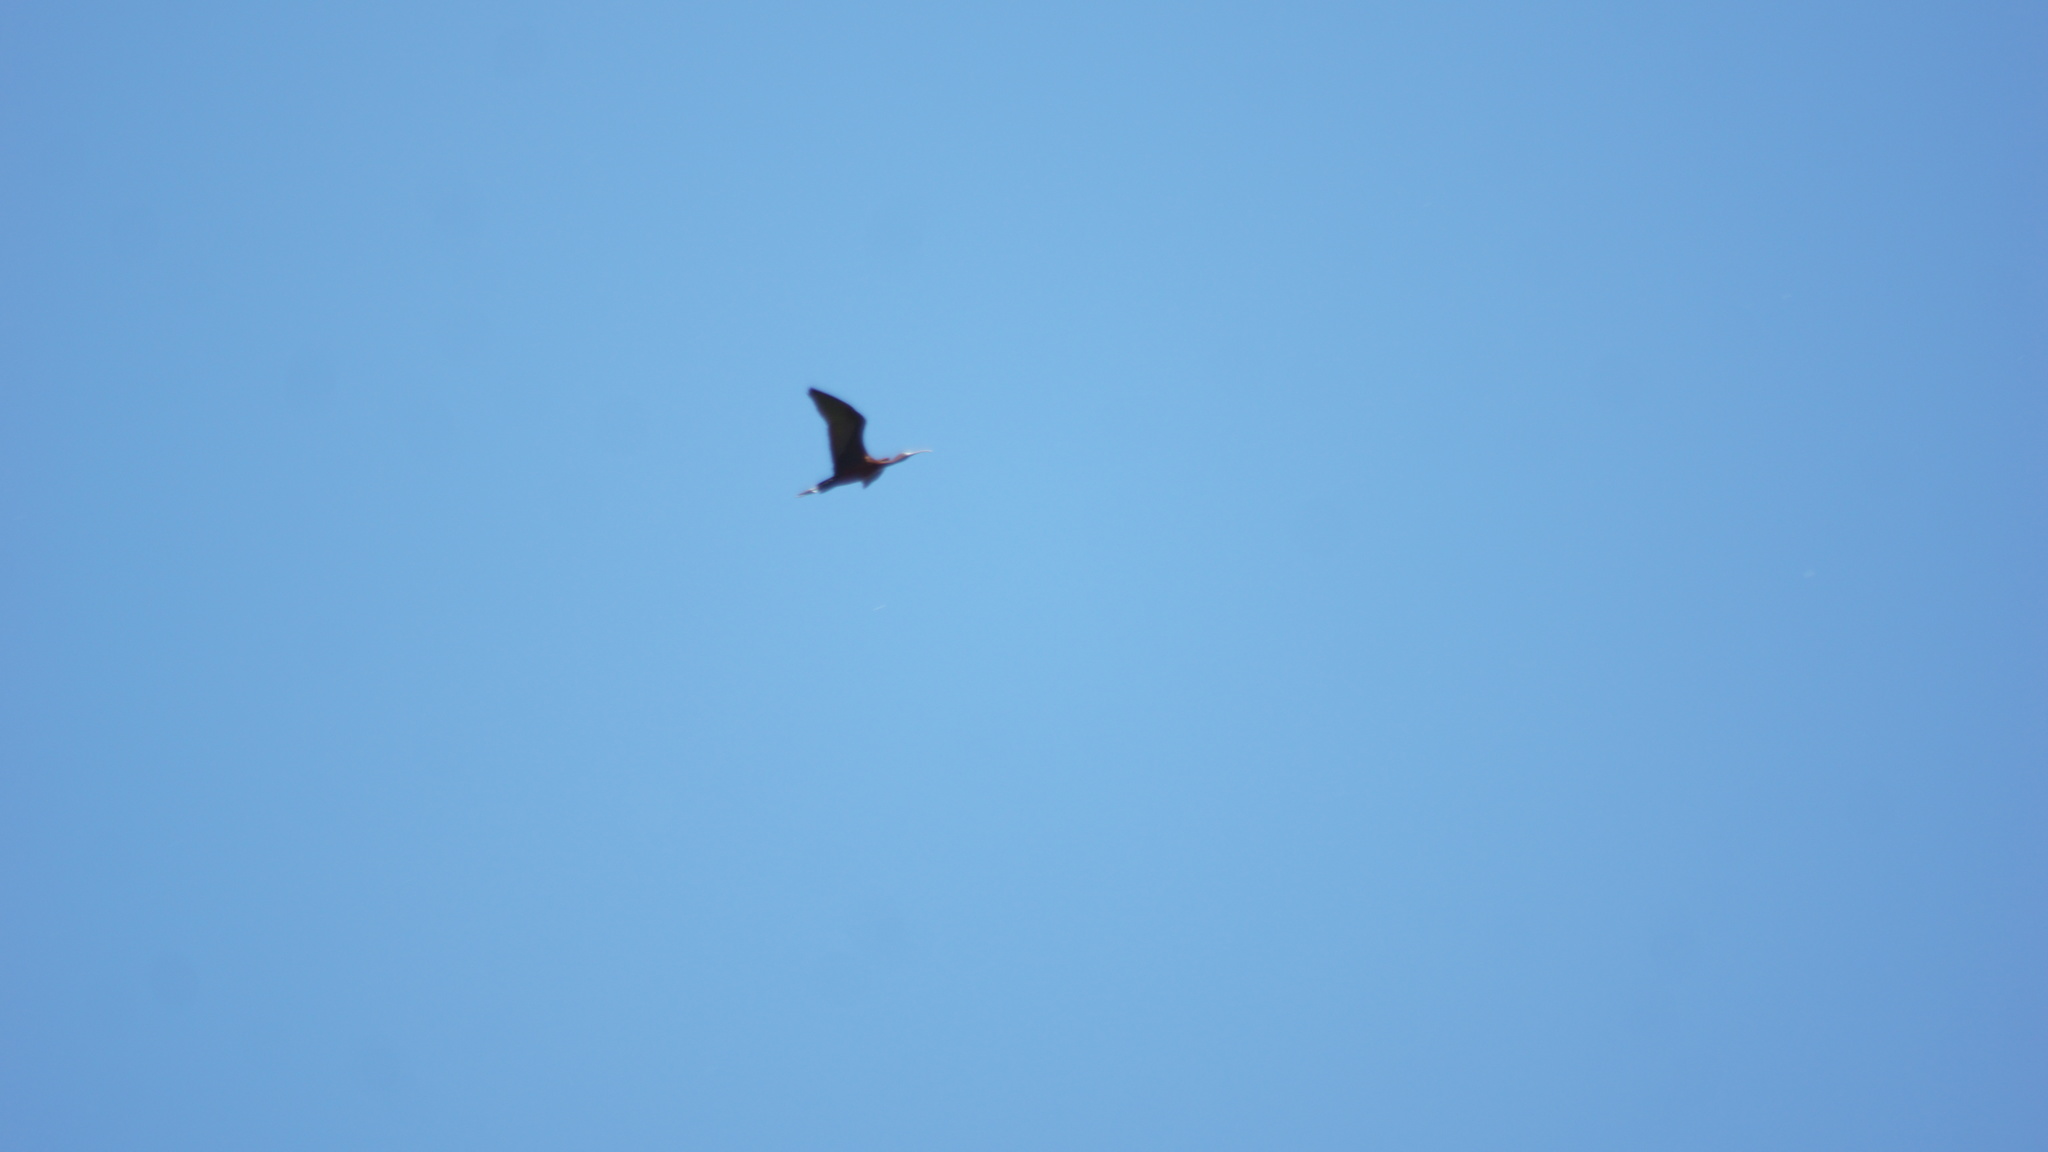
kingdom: Animalia
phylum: Chordata
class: Aves
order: Pelecaniformes
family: Threskiornithidae
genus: Plegadis
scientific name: Plegadis falcinellus
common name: Glossy ibis
